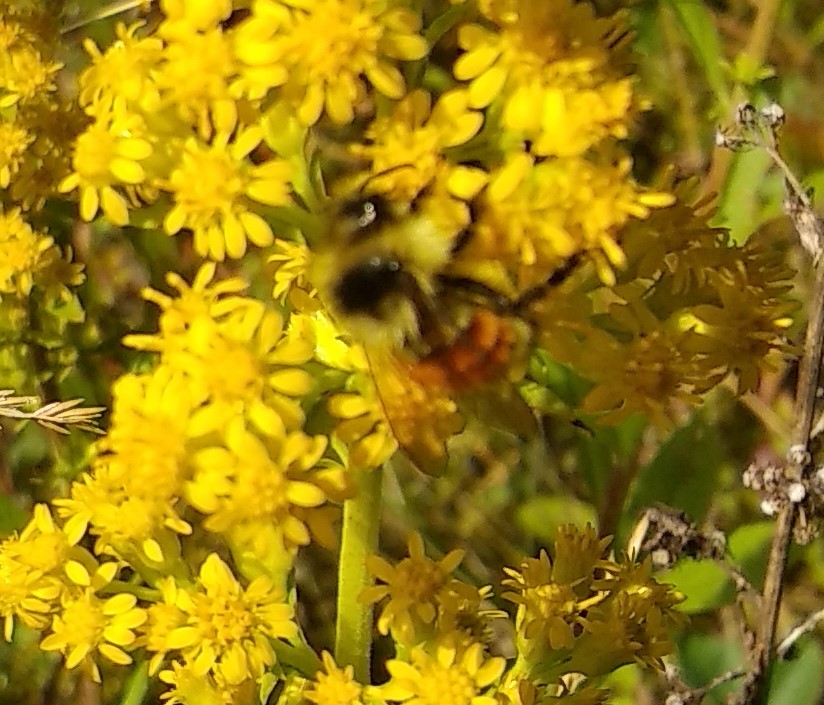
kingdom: Animalia
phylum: Arthropoda
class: Insecta
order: Hymenoptera
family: Apidae
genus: Bombus
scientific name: Bombus ternarius
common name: Tri-colored bumble bee
